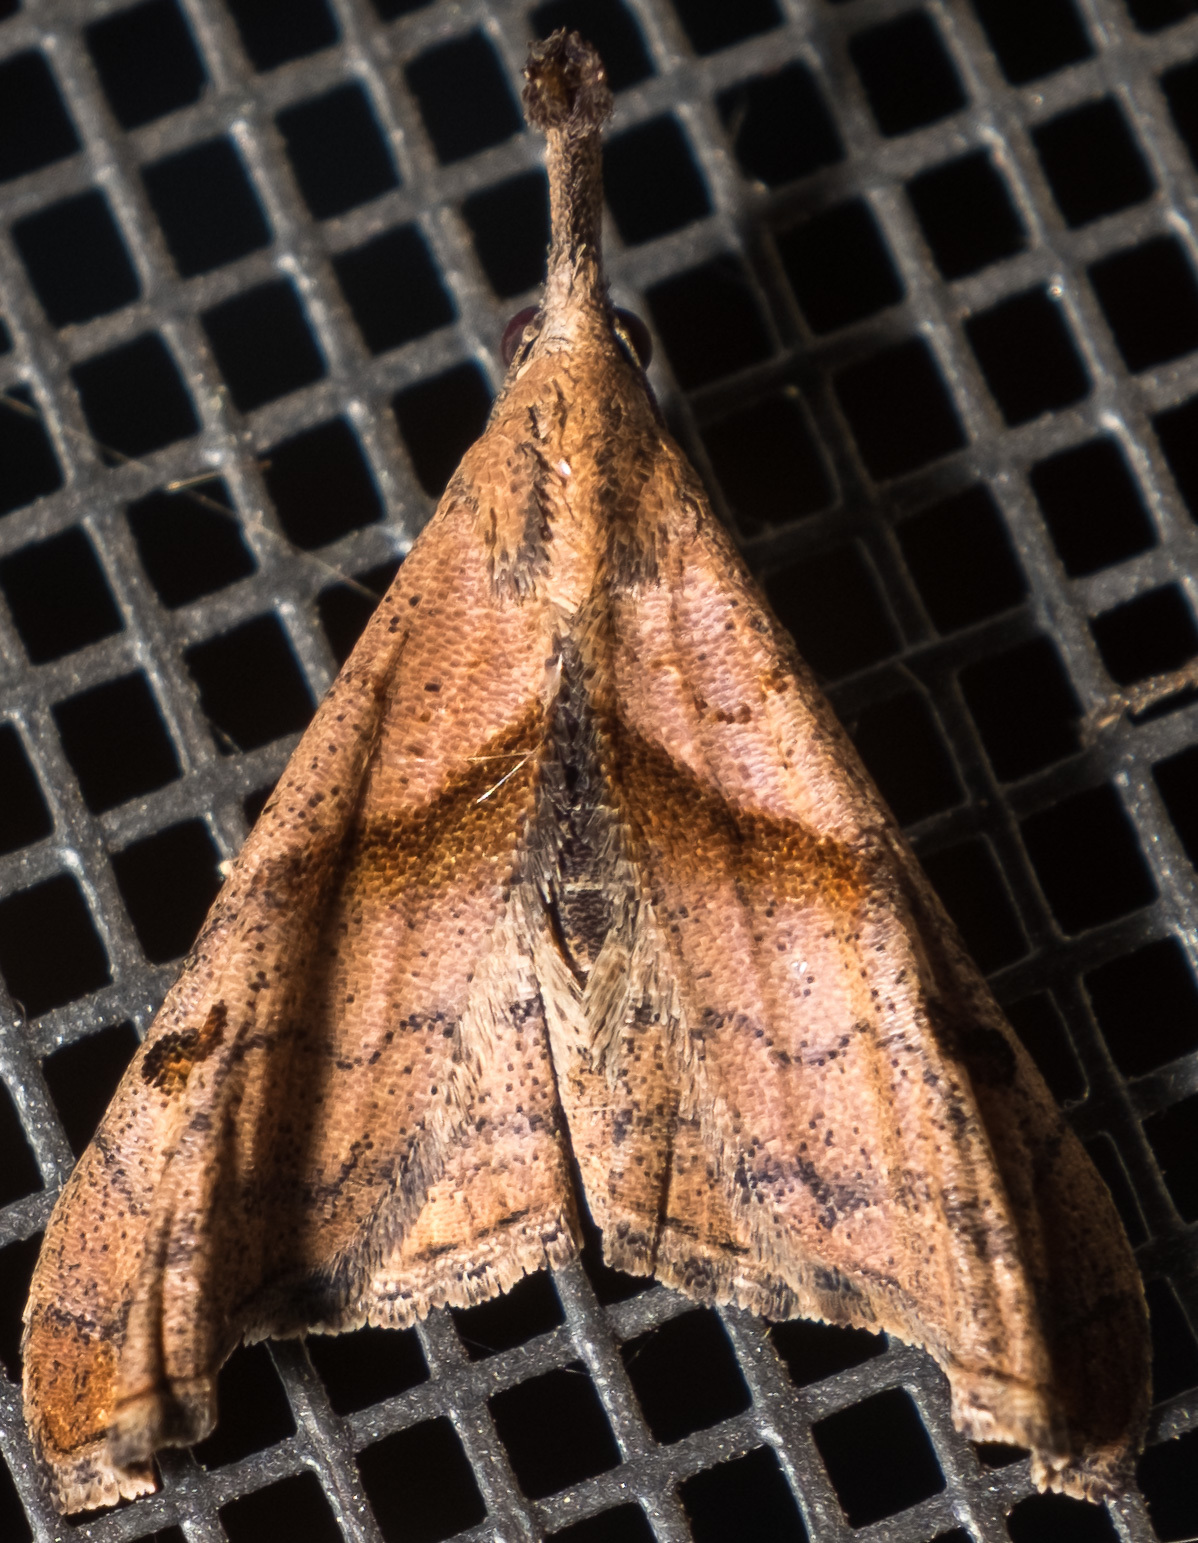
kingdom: Animalia
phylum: Arthropoda
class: Insecta
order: Lepidoptera
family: Erebidae
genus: Palthis
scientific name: Palthis angulalis
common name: Dark-spotted palthis moth
